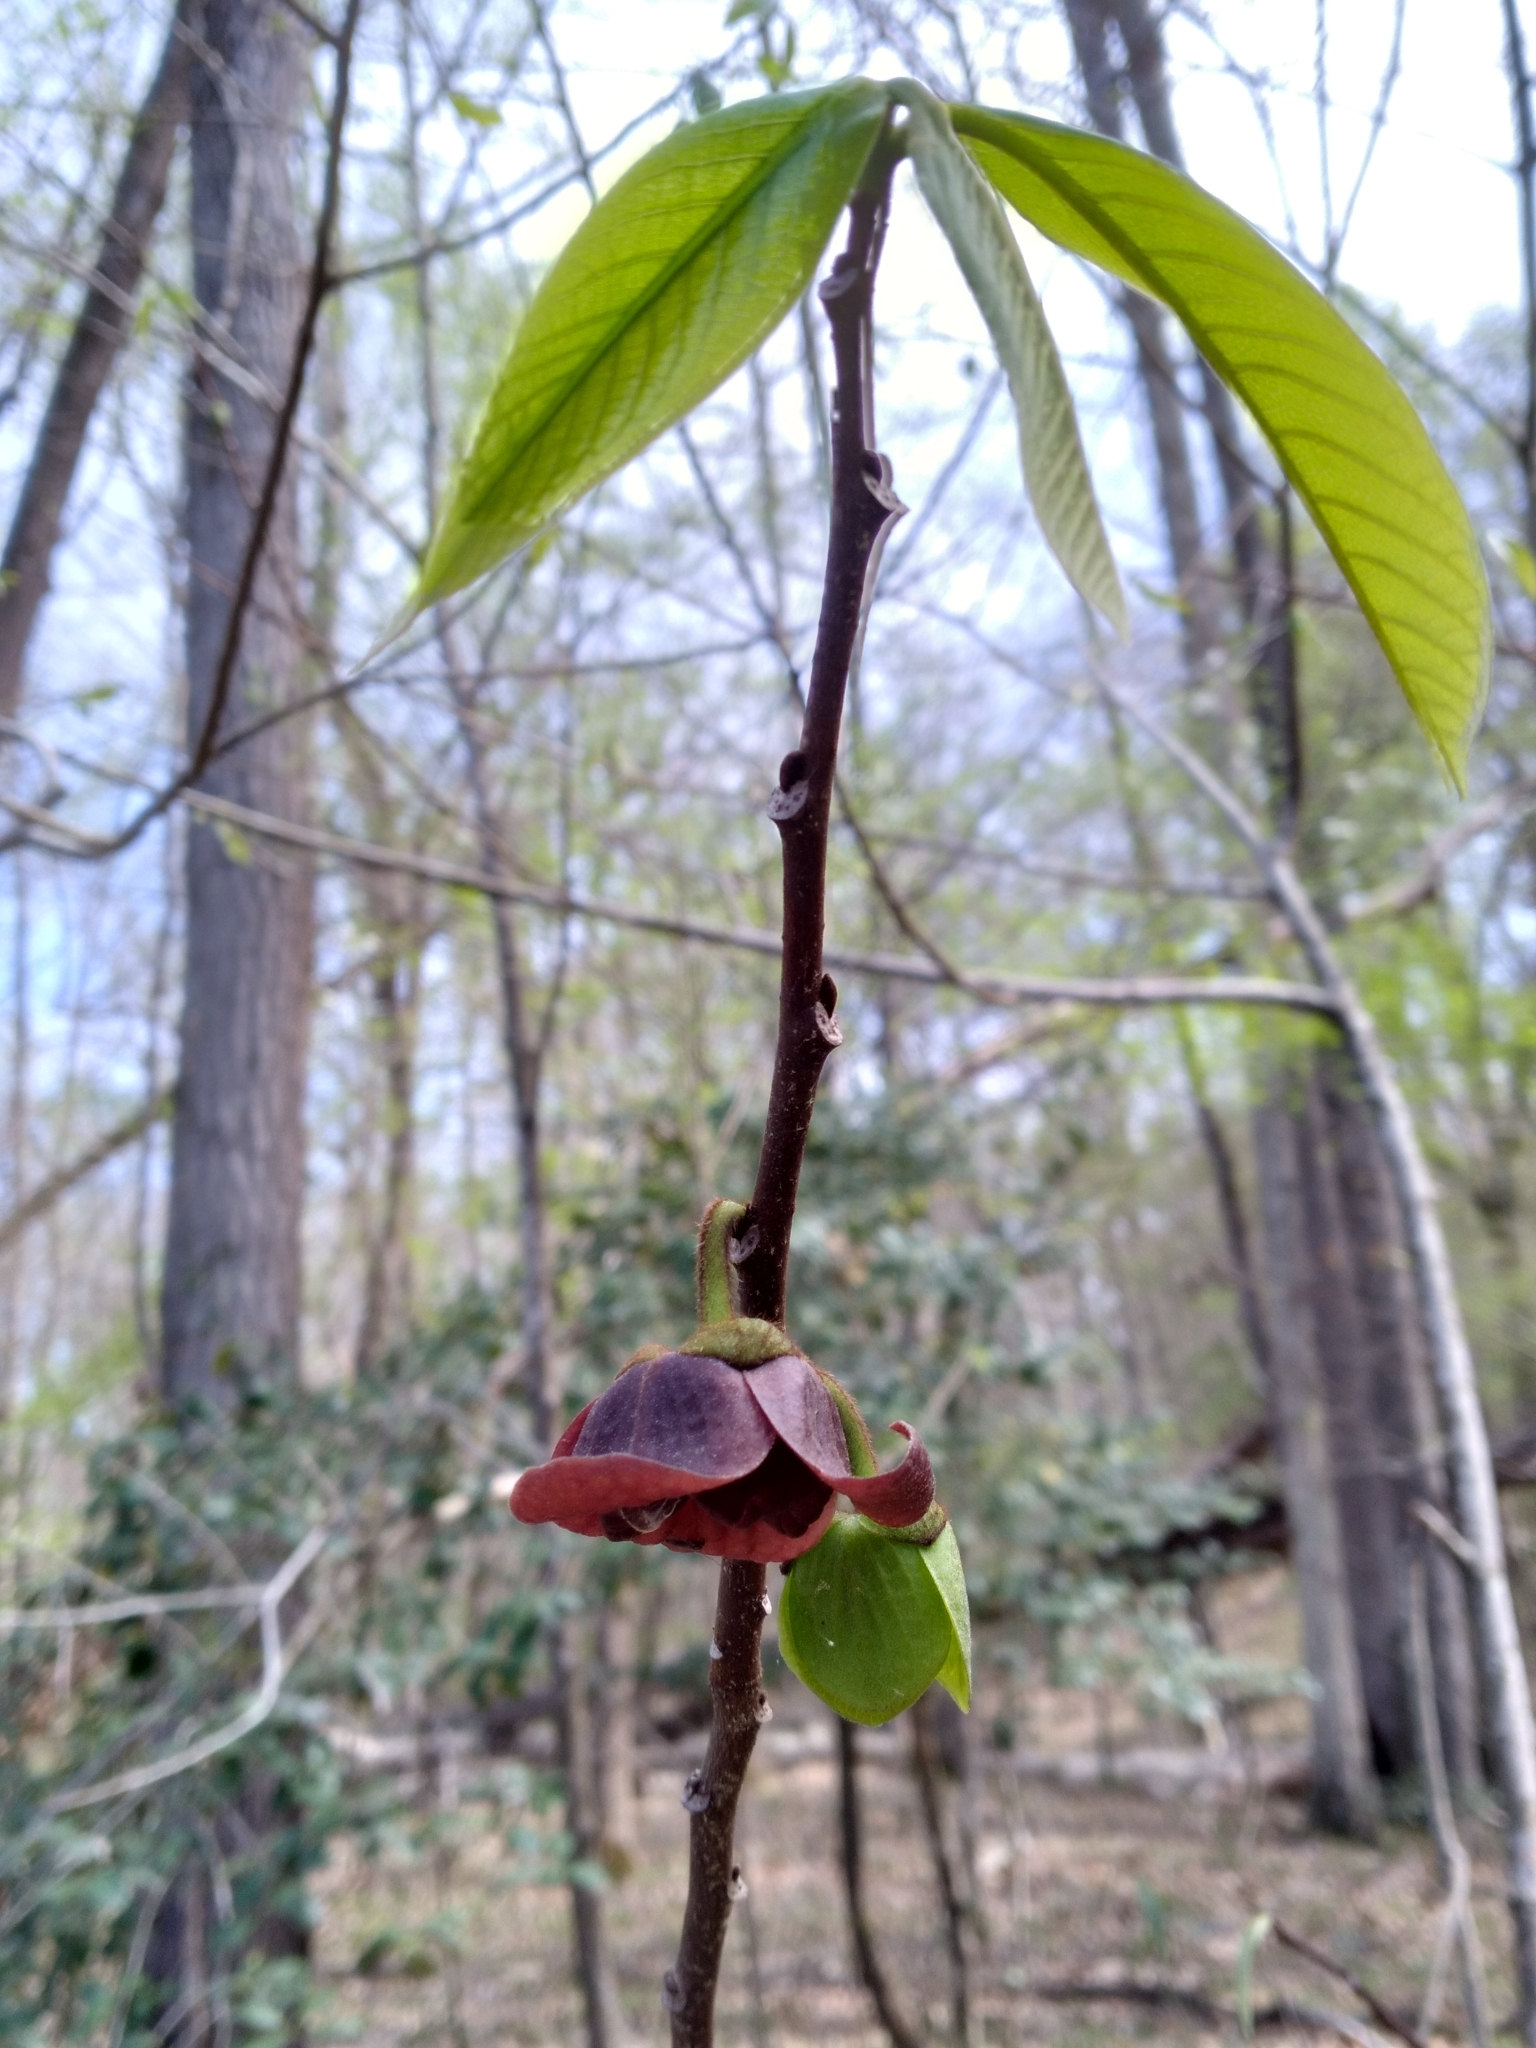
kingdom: Plantae
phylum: Tracheophyta
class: Magnoliopsida
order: Magnoliales
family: Annonaceae
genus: Asimina
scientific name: Asimina triloba
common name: Dog-banana
